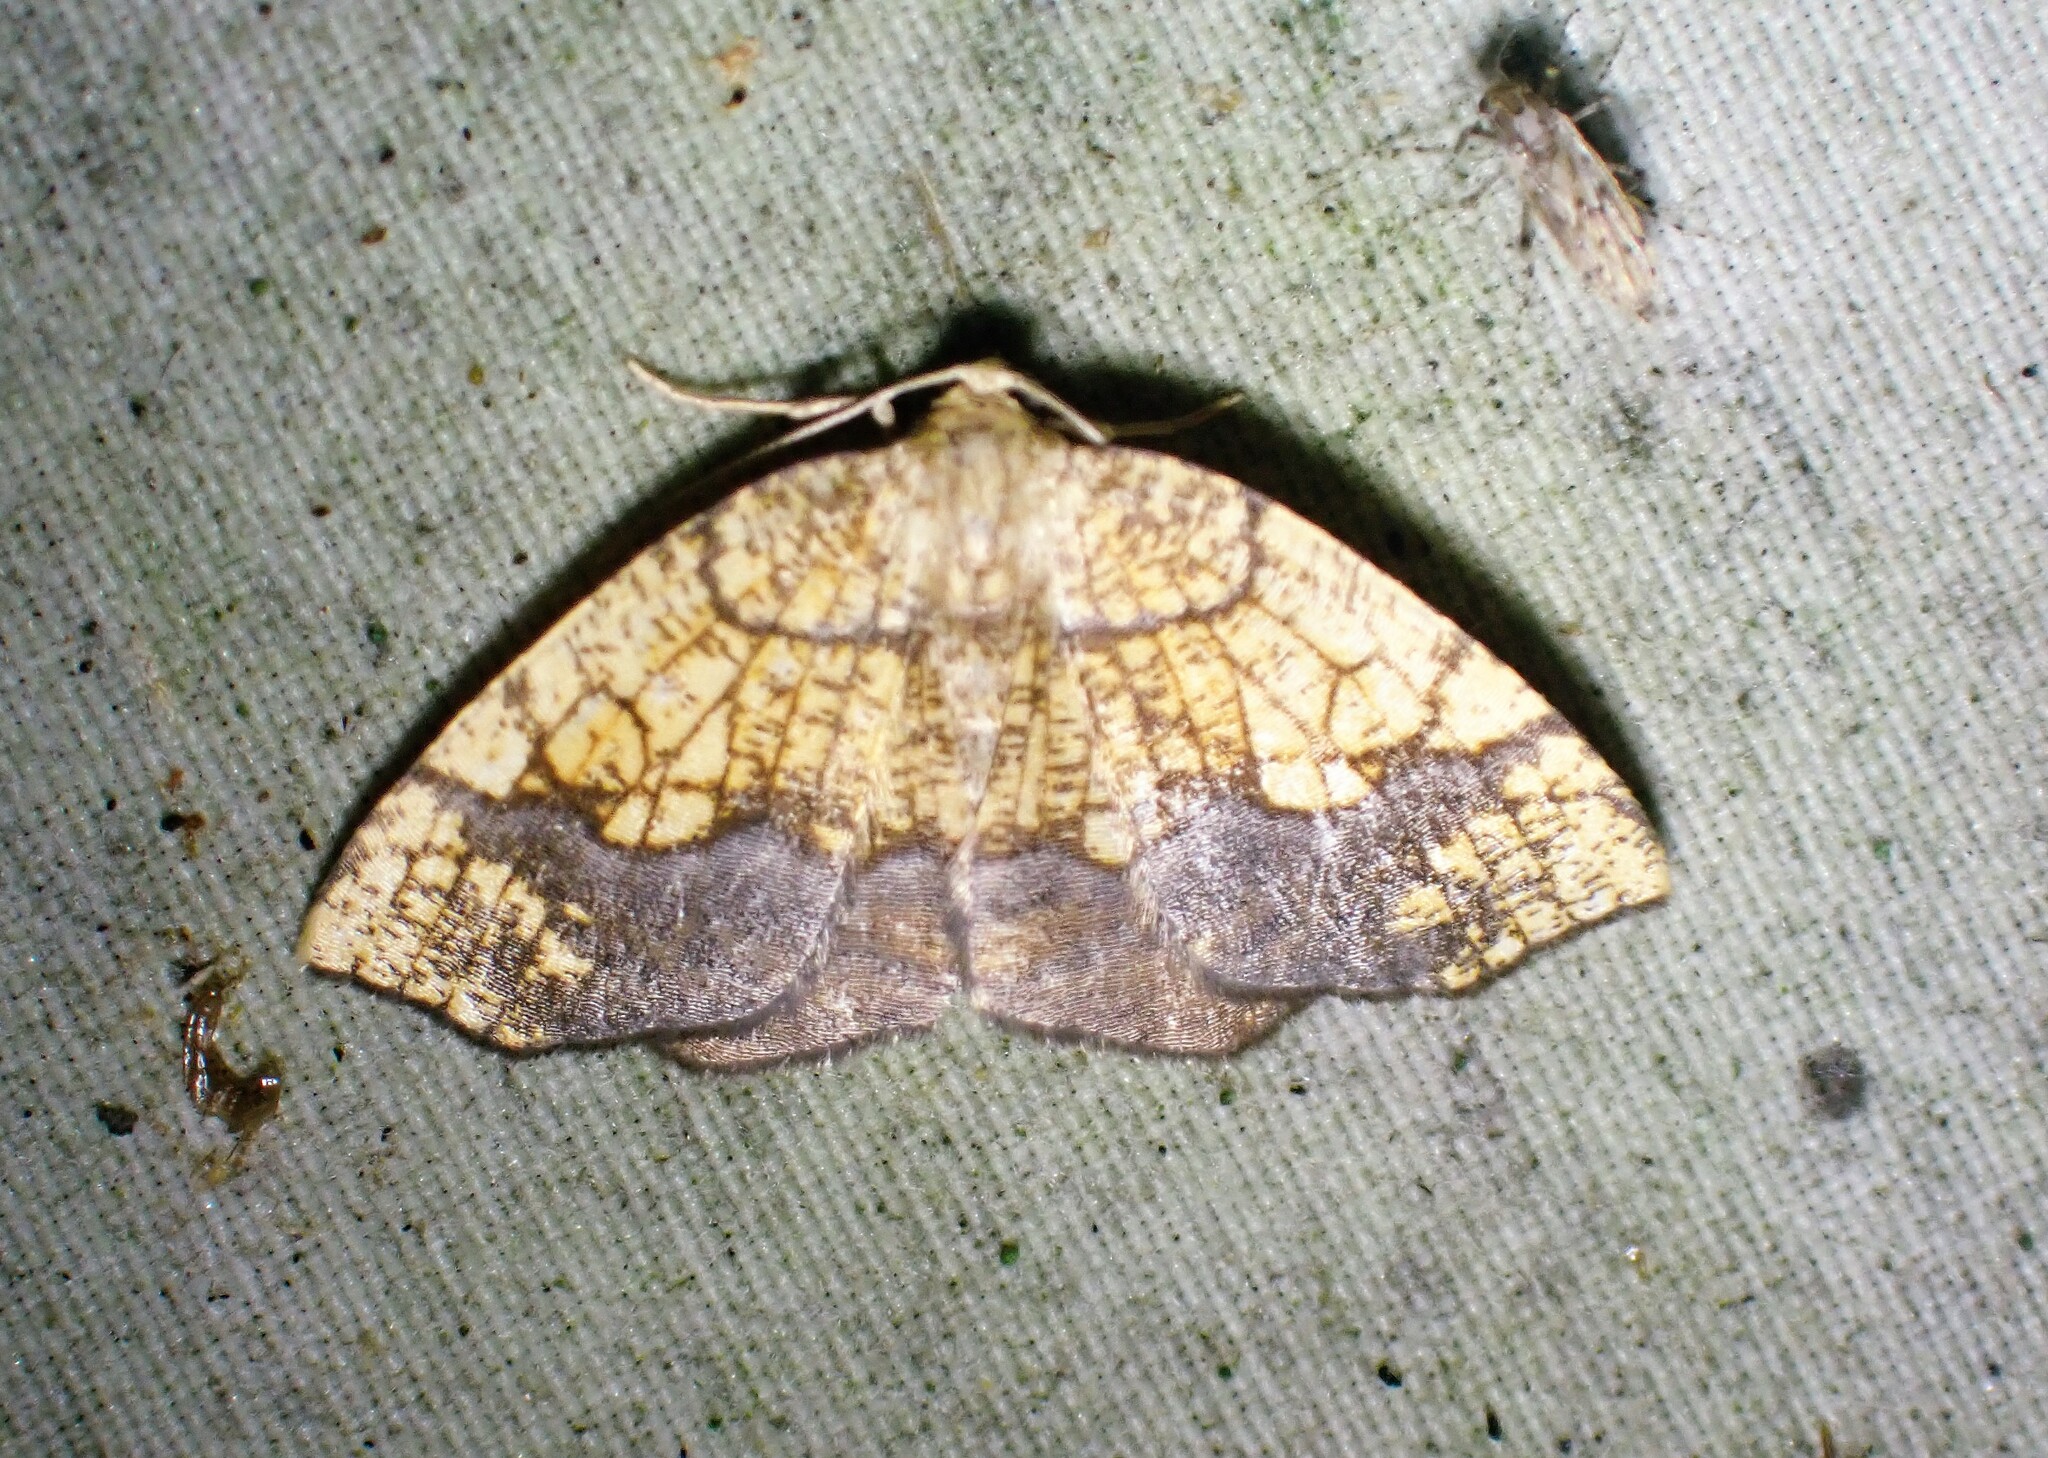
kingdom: Animalia
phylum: Arthropoda
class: Insecta
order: Lepidoptera
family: Geometridae
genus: Nematocampa
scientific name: Nematocampa resistaria
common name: Horned spanworm moth
